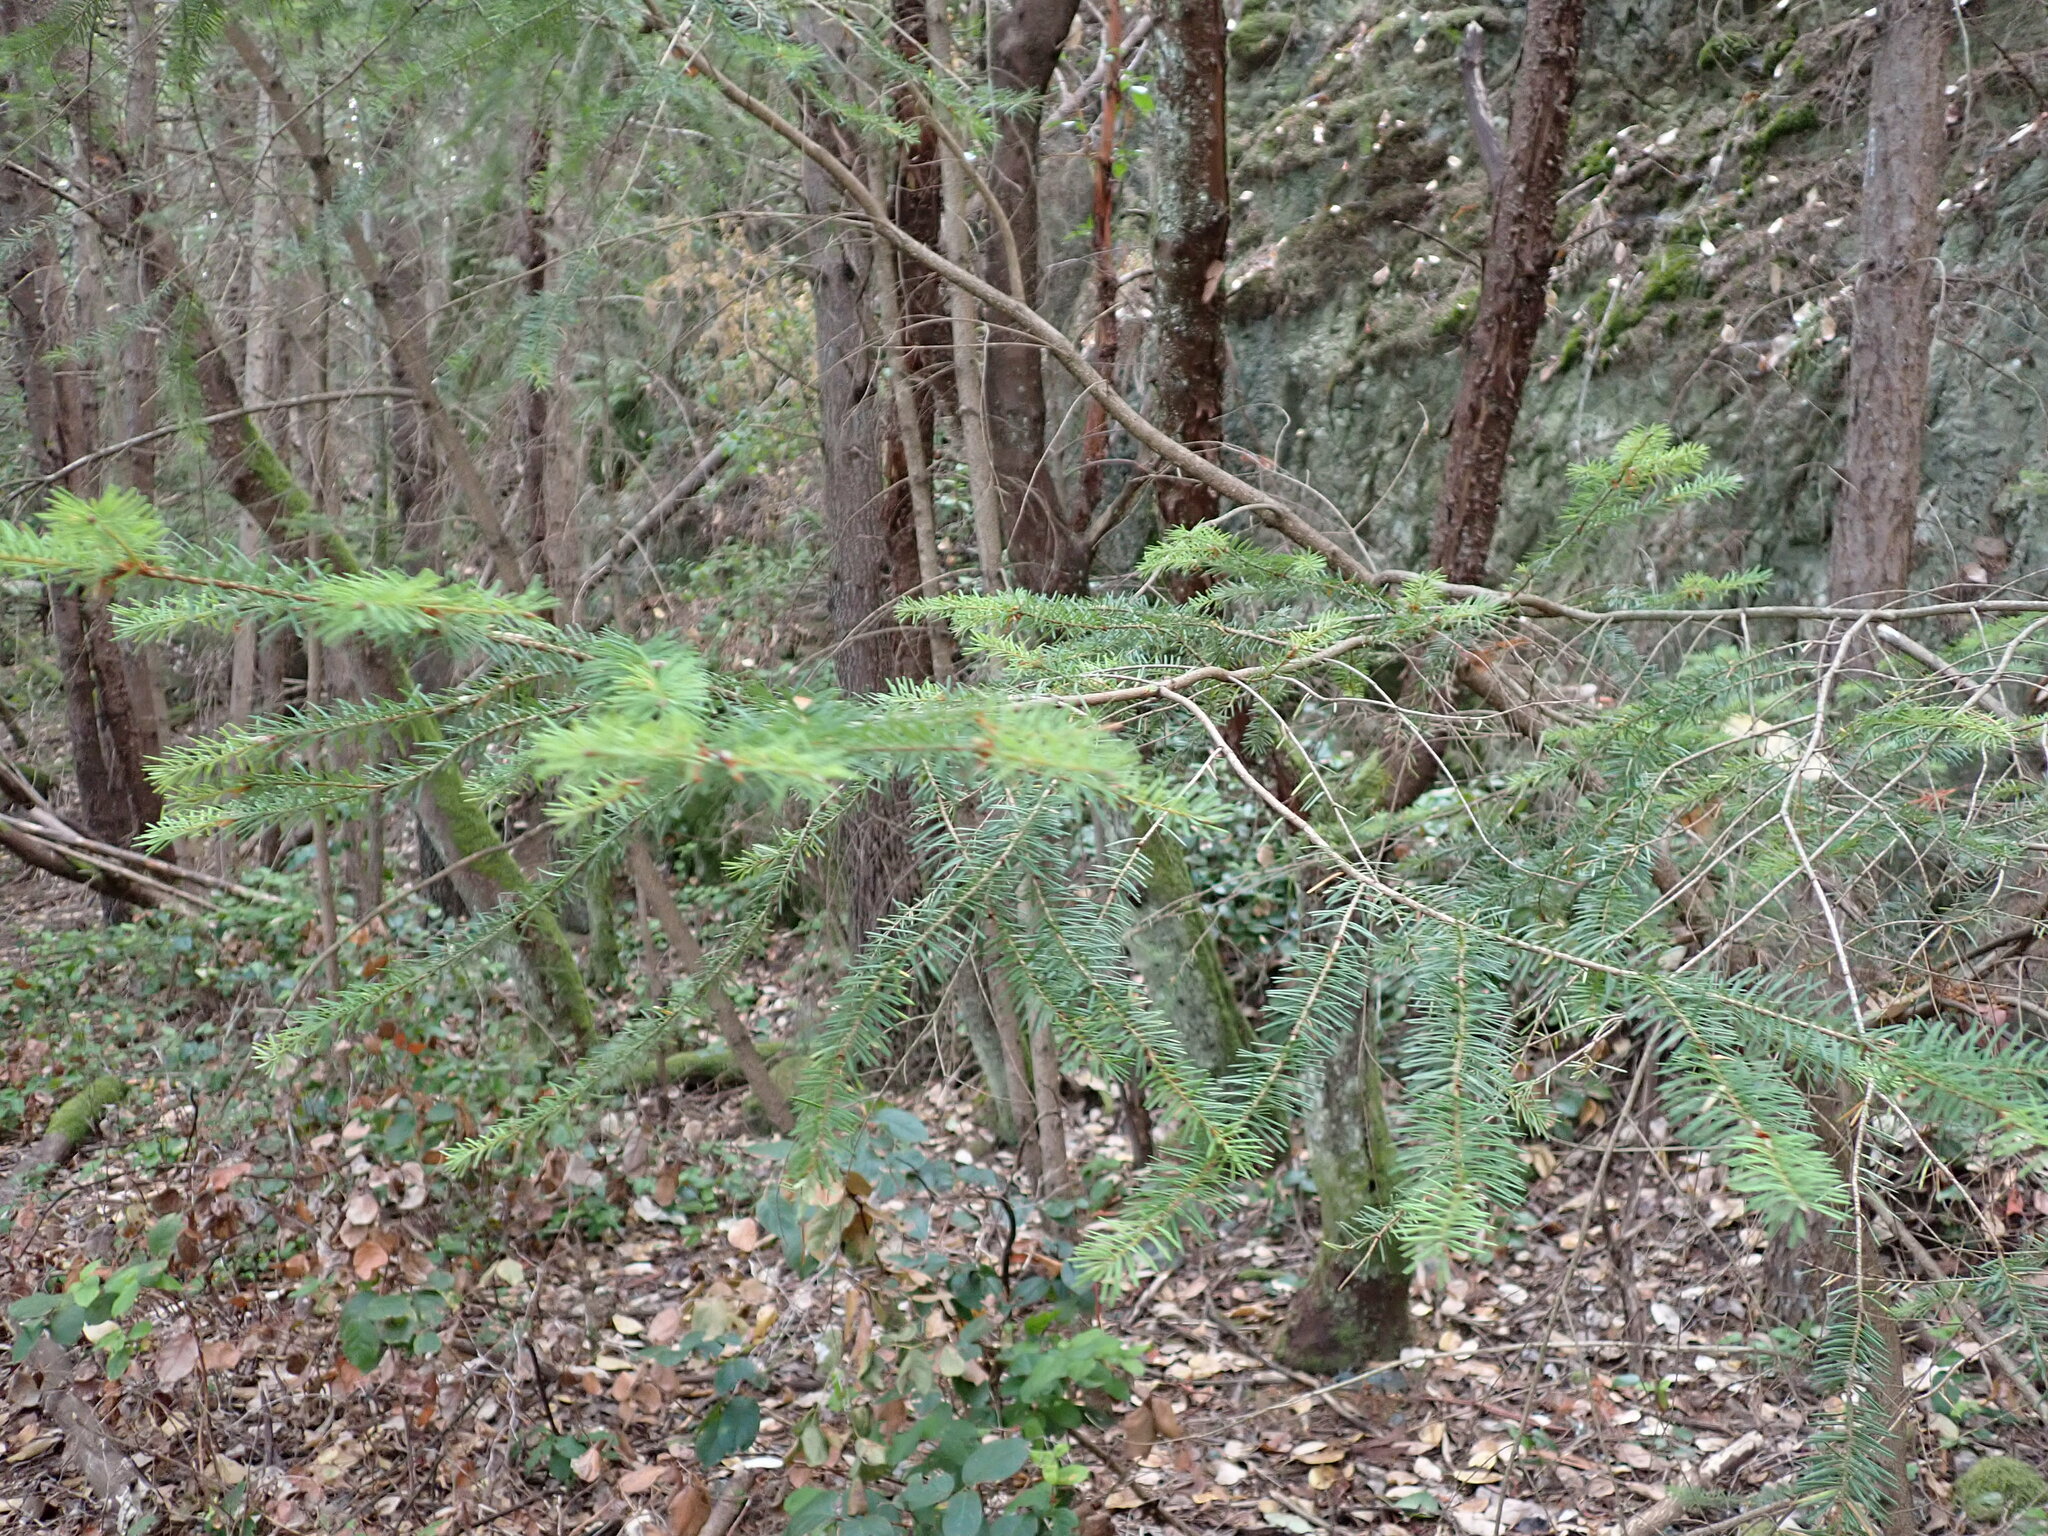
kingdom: Plantae
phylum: Tracheophyta
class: Pinopsida
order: Pinales
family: Pinaceae
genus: Pseudotsuga
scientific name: Pseudotsuga menziesii
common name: Douglas fir
